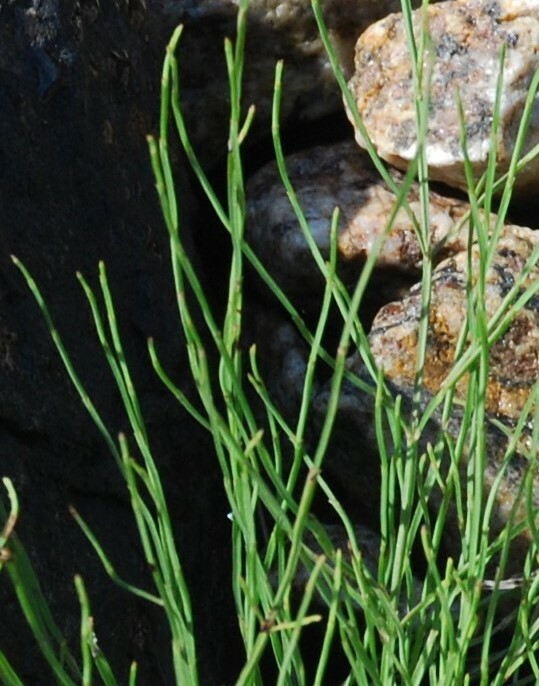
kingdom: Plantae
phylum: Tracheophyta
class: Polypodiopsida
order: Equisetales
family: Equisetaceae
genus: Equisetum
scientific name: Equisetum arvense
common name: Field horsetail
